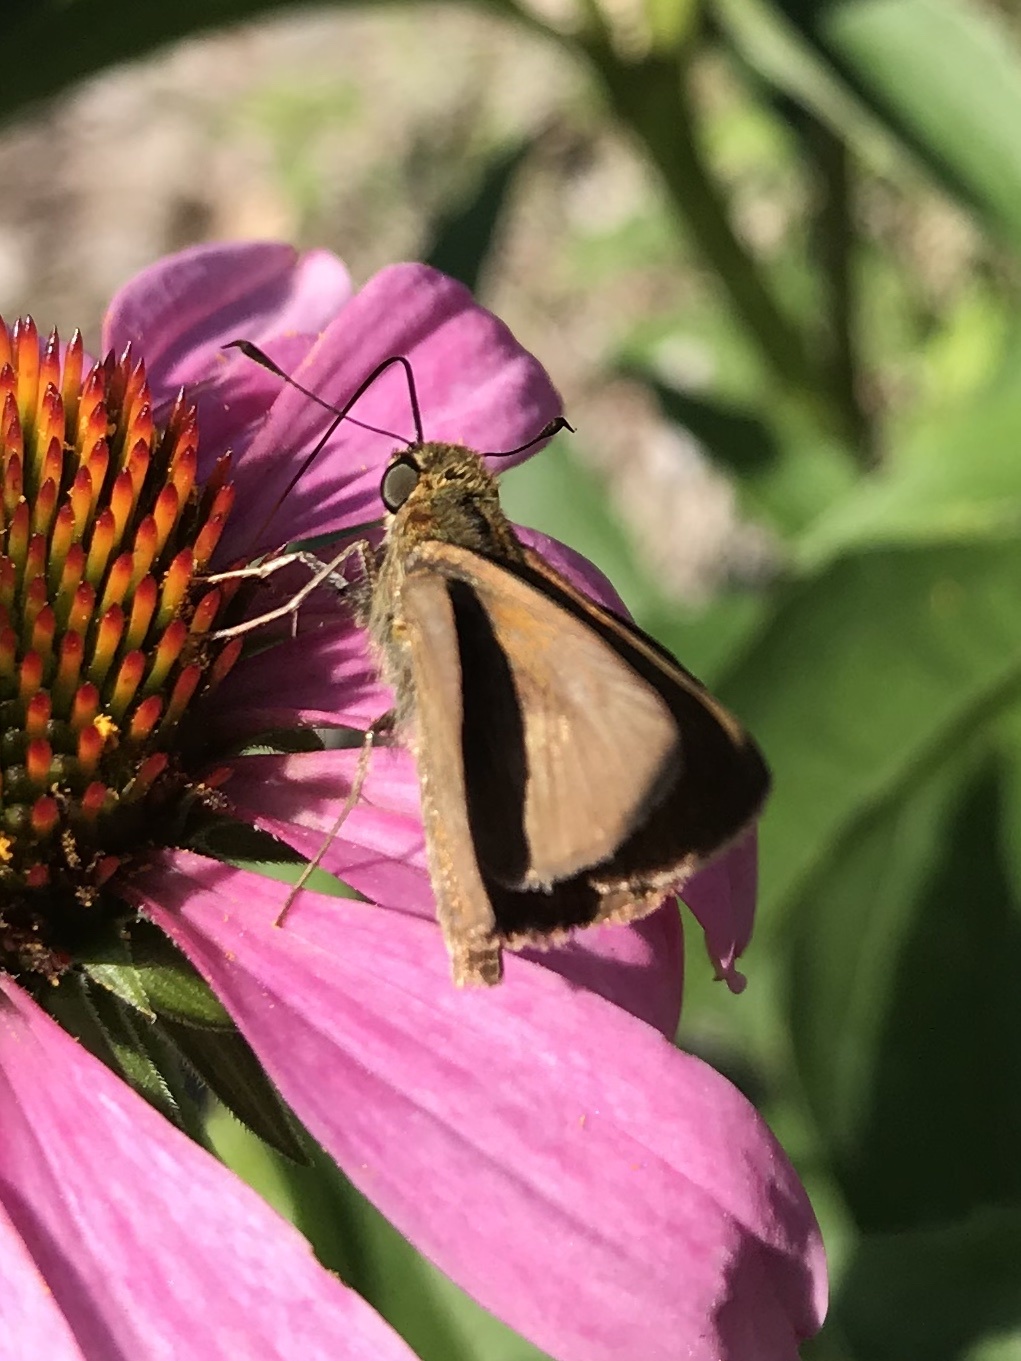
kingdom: Animalia
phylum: Arthropoda
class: Insecta
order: Lepidoptera
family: Hesperiidae
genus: Euphyes
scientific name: Euphyes vestris
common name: Dun skipper
